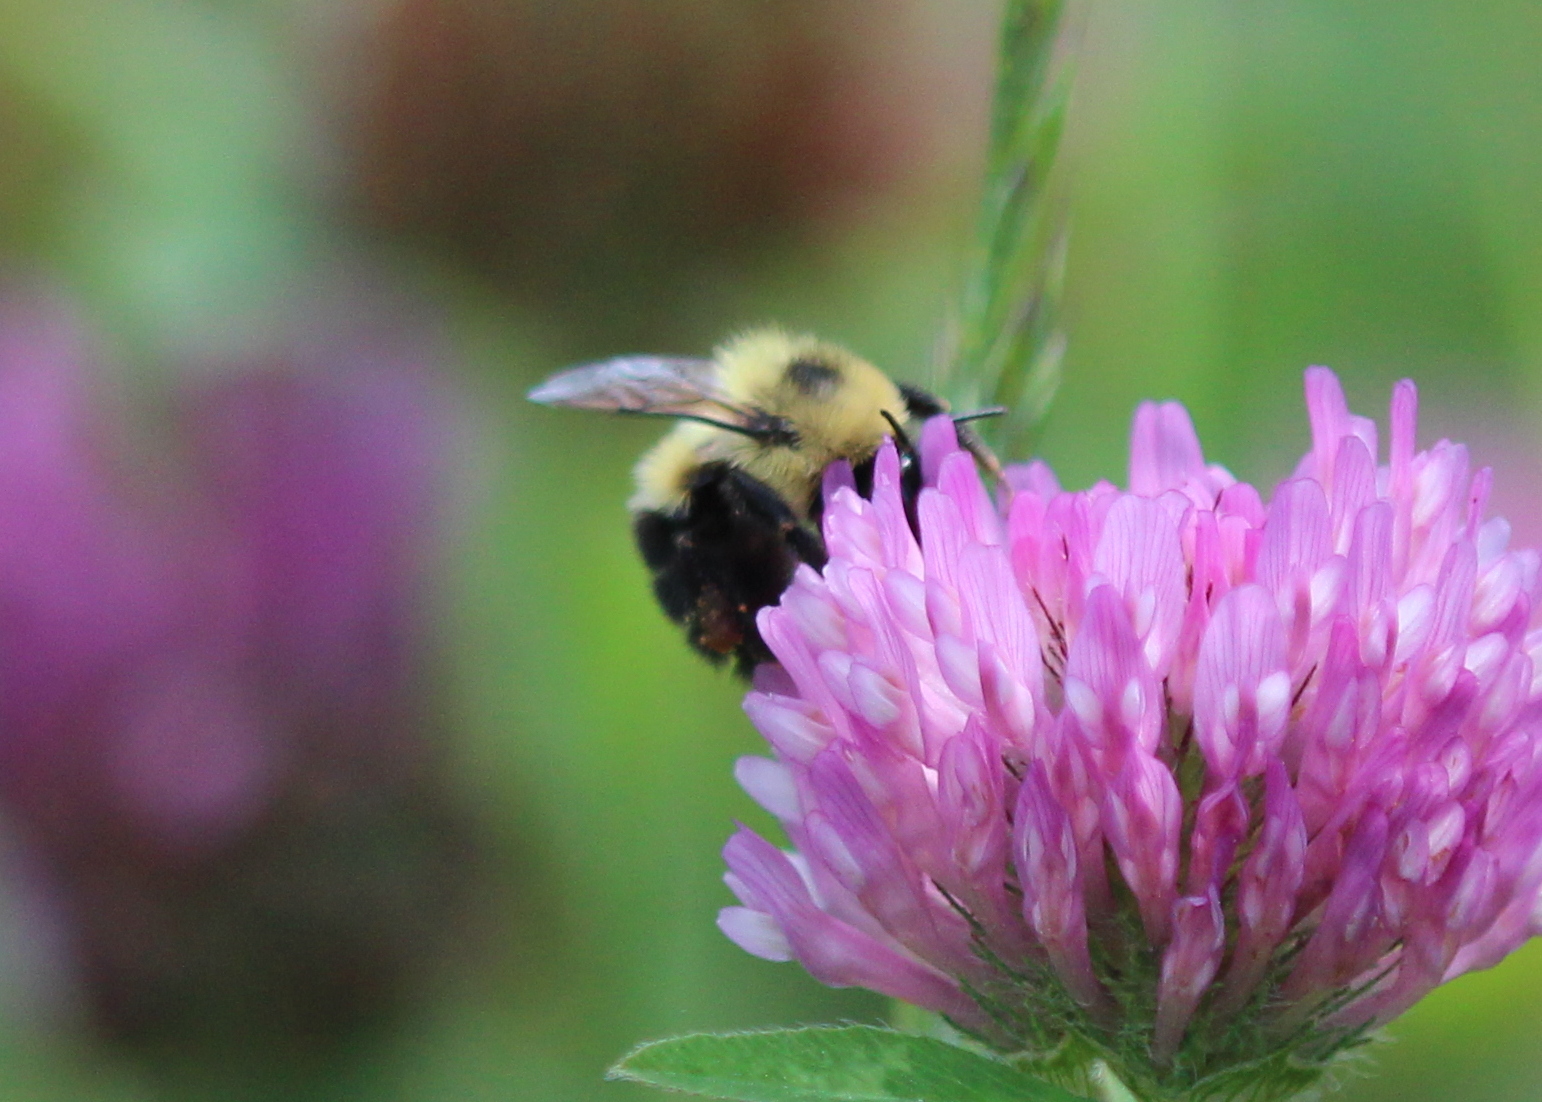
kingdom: Animalia
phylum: Arthropoda
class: Insecta
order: Hymenoptera
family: Apidae
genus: Bombus
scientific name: Bombus bimaculatus
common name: Two-spotted bumble bee
